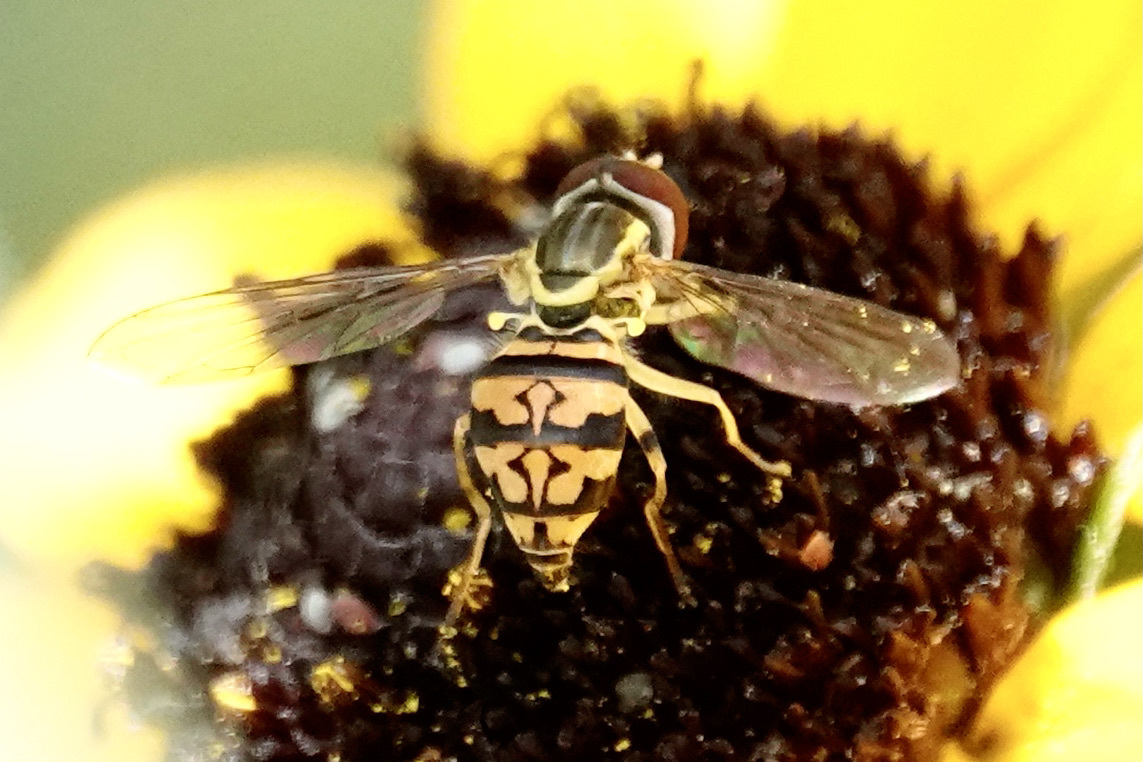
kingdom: Animalia
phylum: Arthropoda
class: Insecta
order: Diptera
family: Syrphidae
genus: Toxomerus
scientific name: Toxomerus geminatus
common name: Eastern calligrapher
